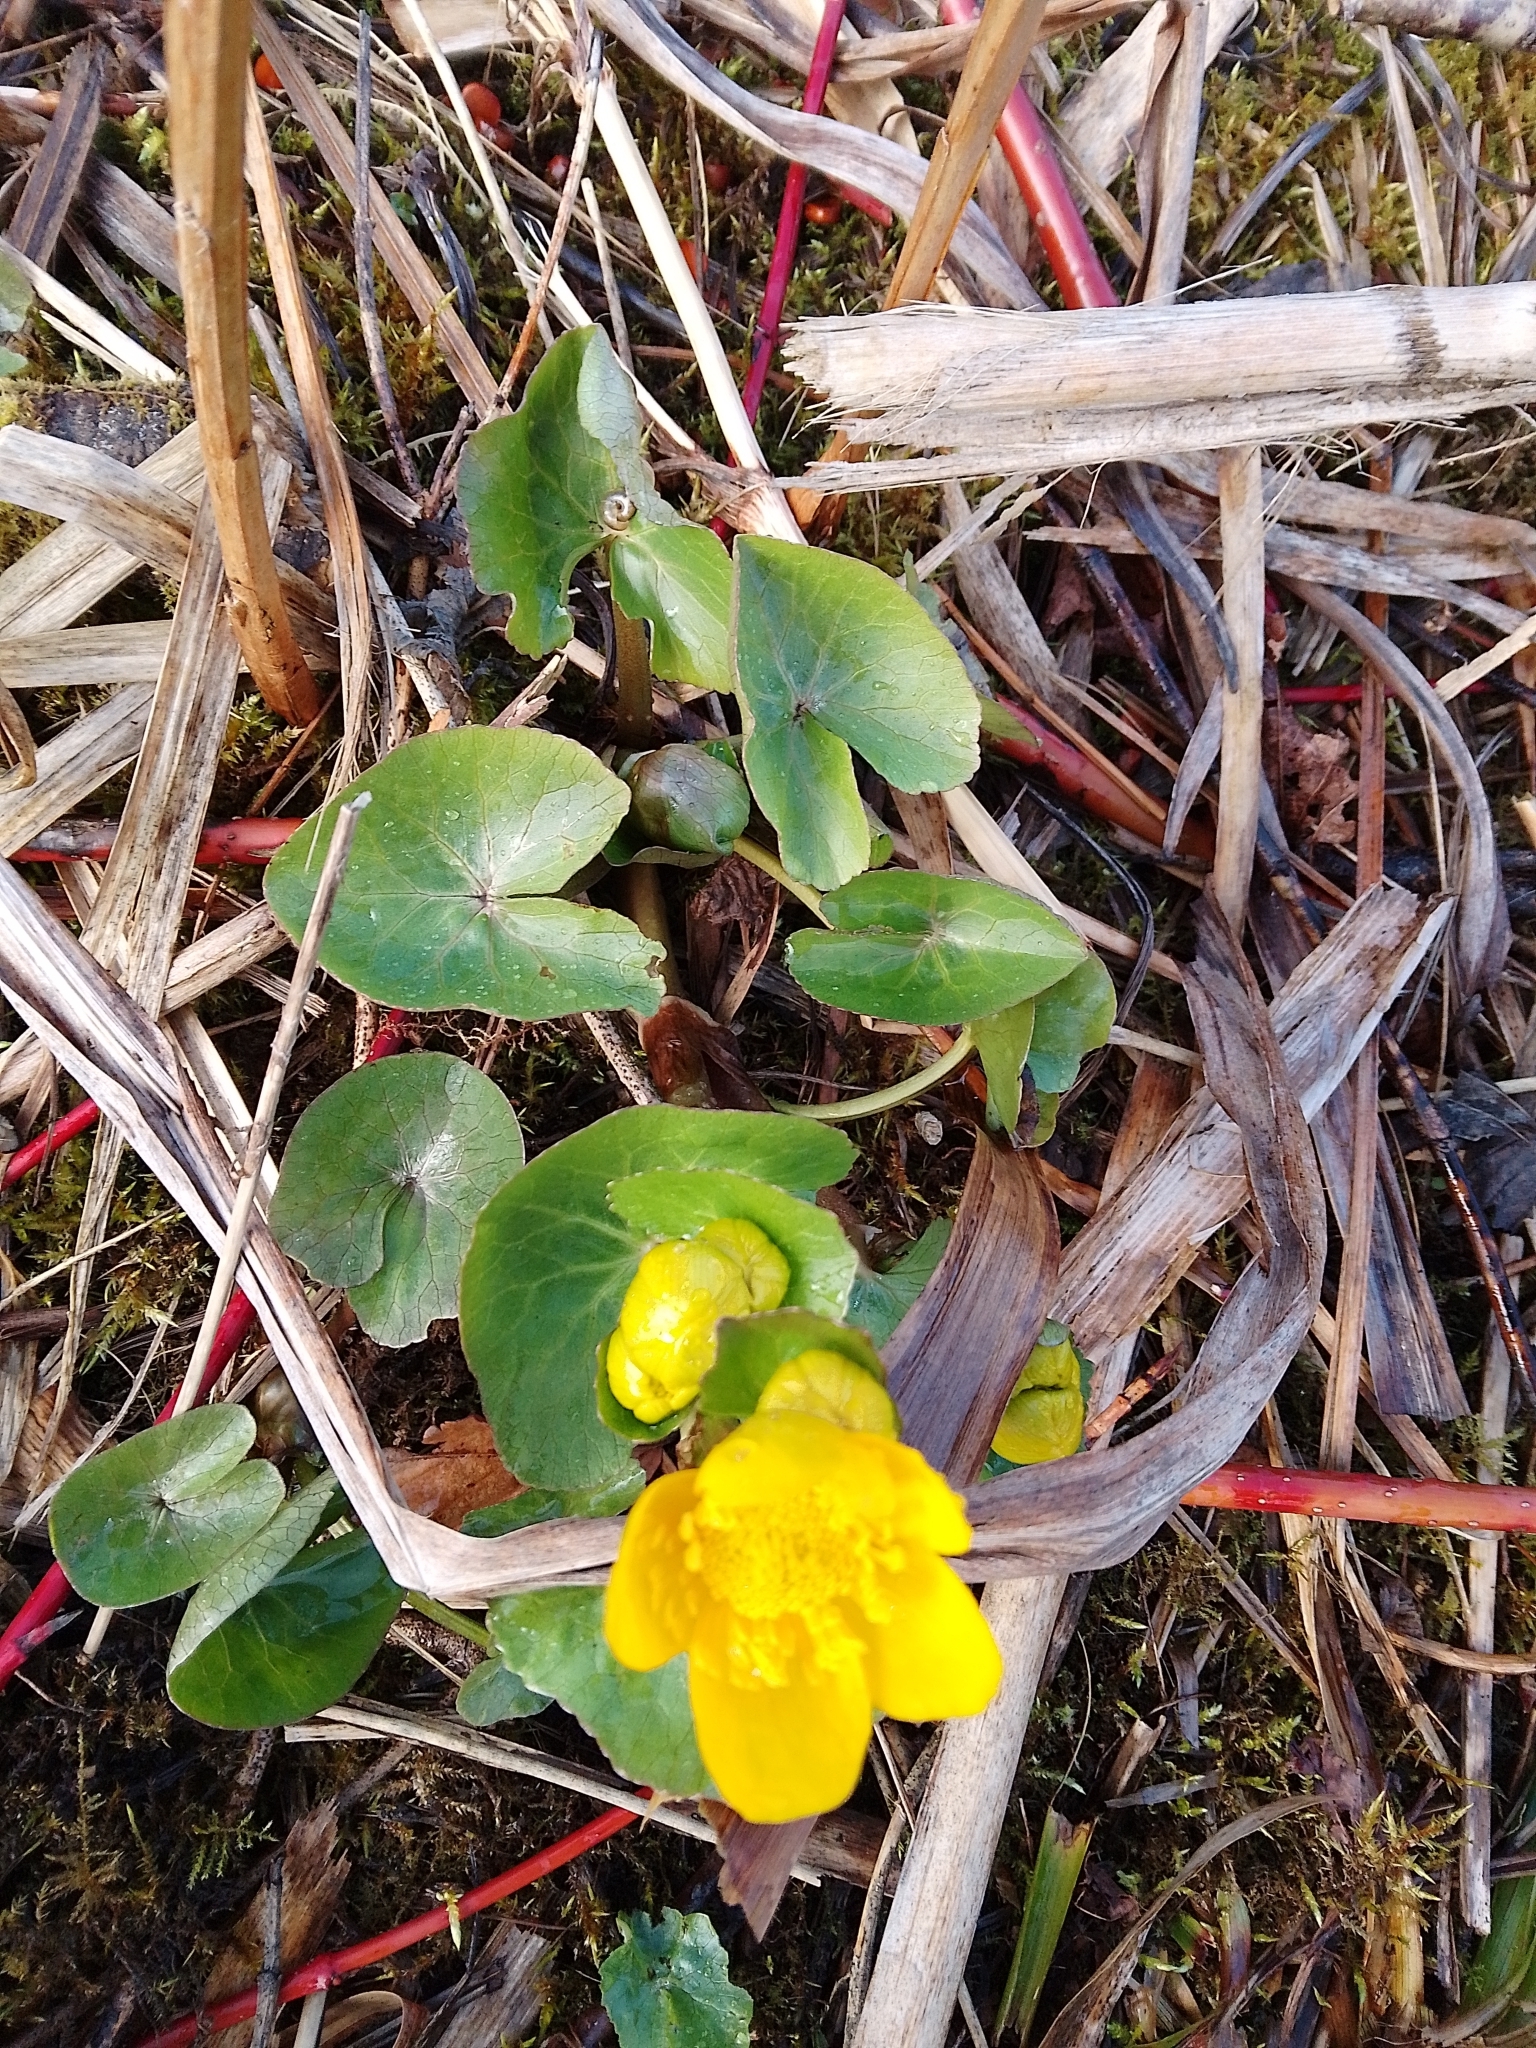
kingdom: Plantae
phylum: Tracheophyta
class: Magnoliopsida
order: Ranunculales
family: Ranunculaceae
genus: Caltha
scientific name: Caltha palustris
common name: Marsh marigold
